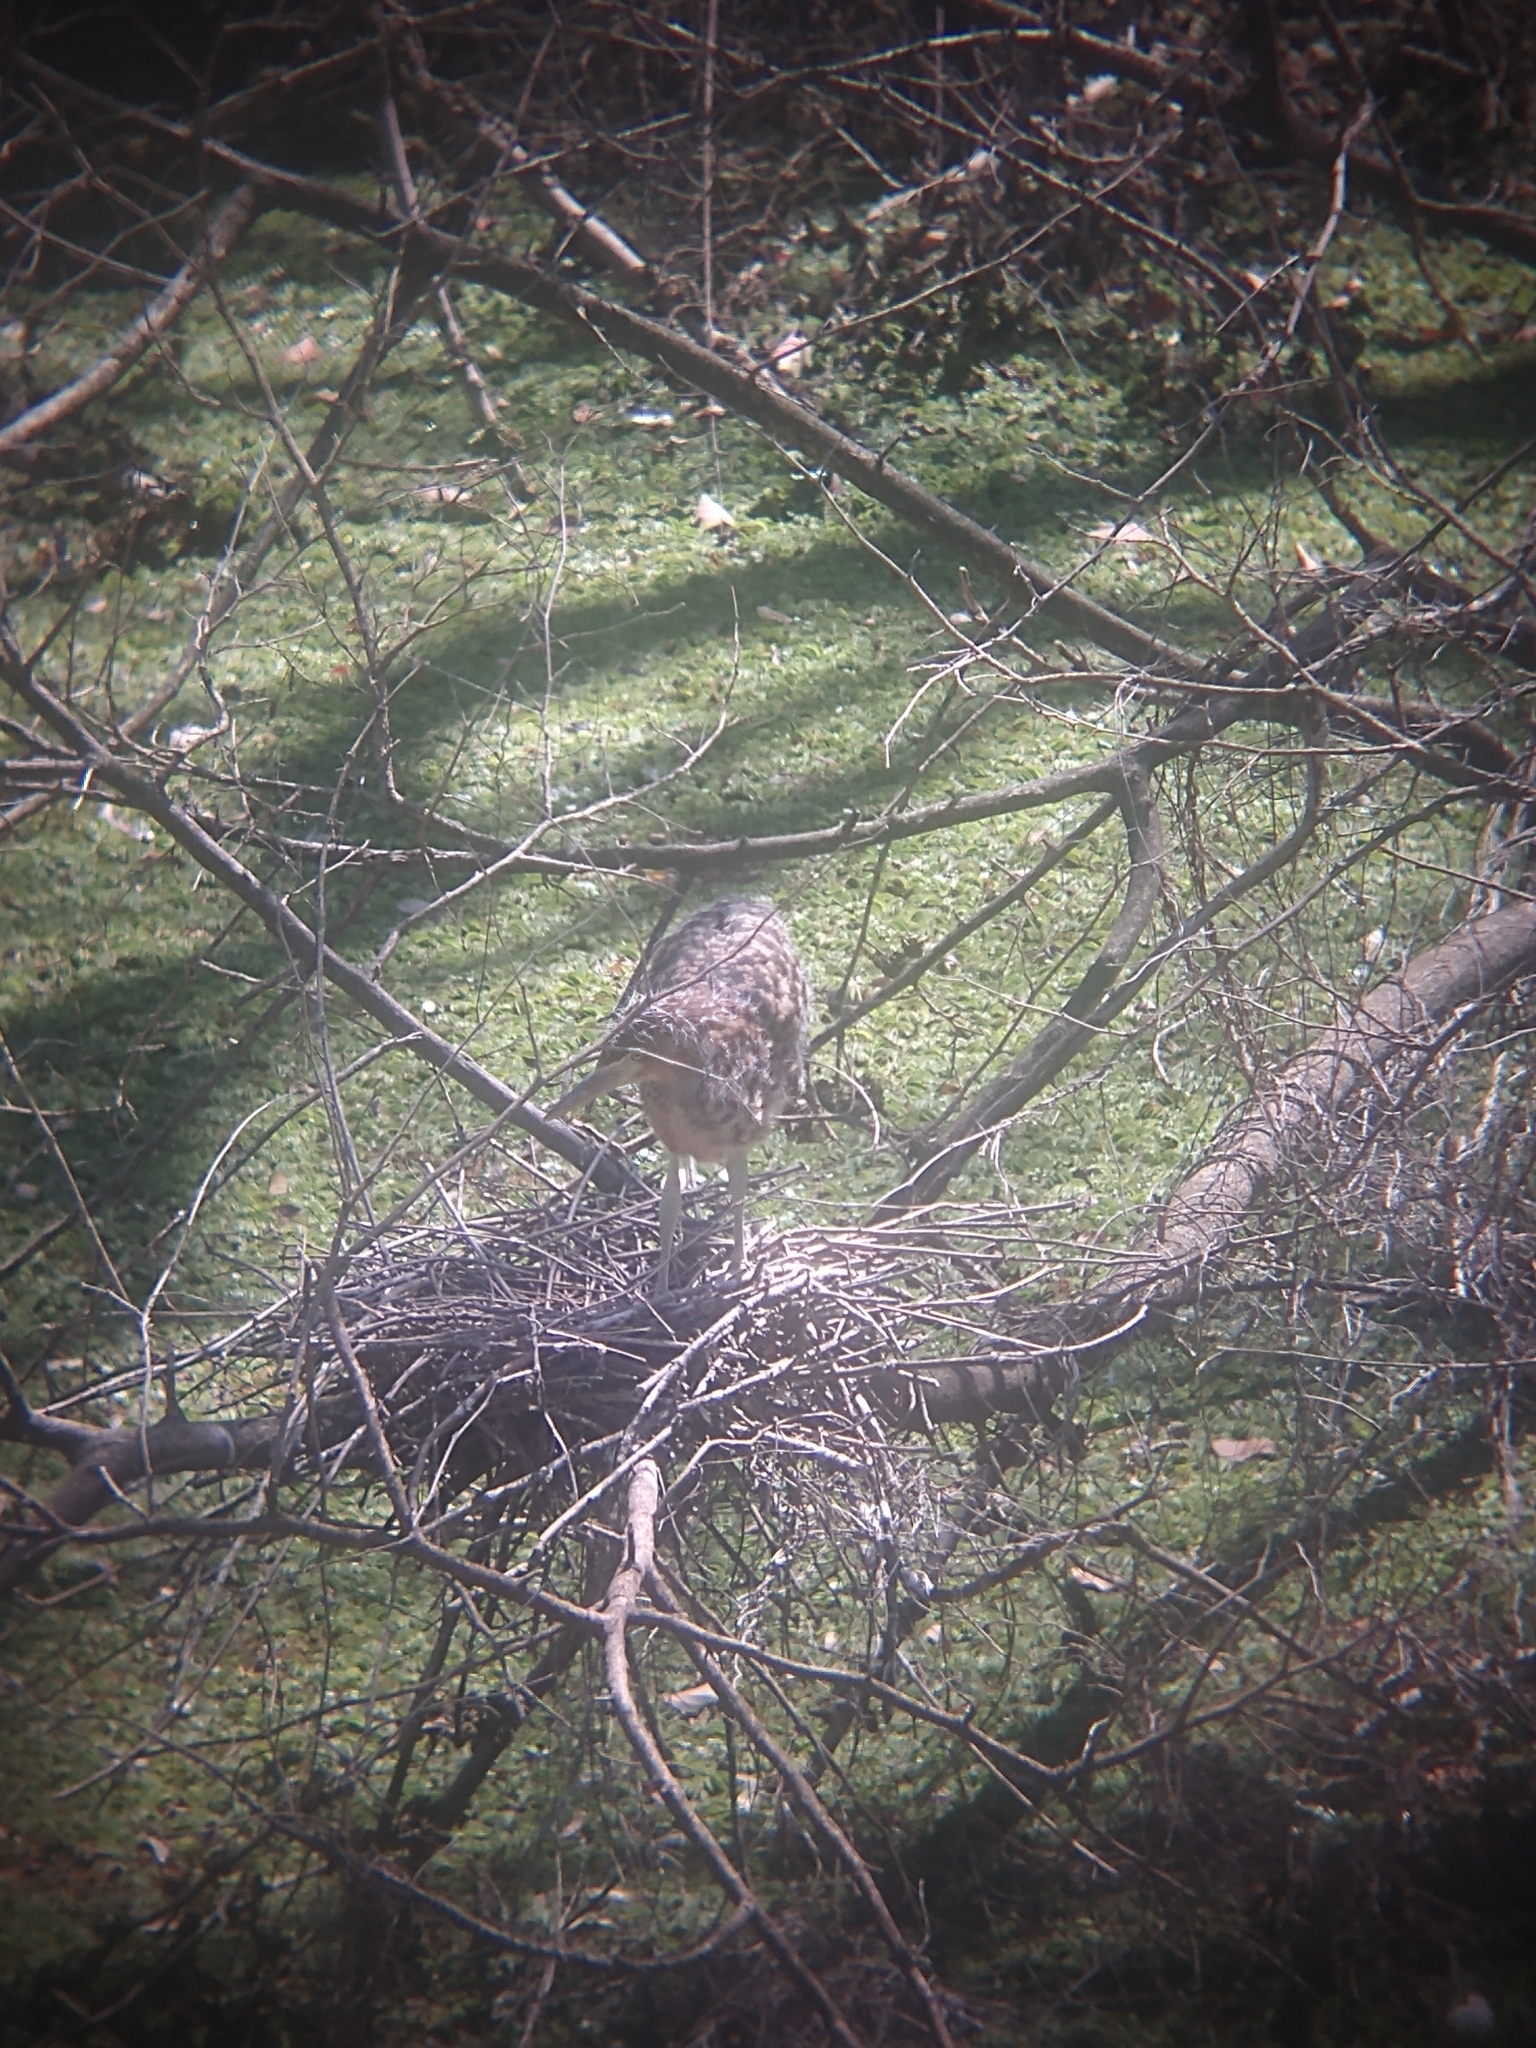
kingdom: Animalia
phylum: Chordata
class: Aves
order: Pelecaniformes
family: Ardeidae
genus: Tigrisoma
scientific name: Tigrisoma lineatum
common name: Rufescent tiger-heron
